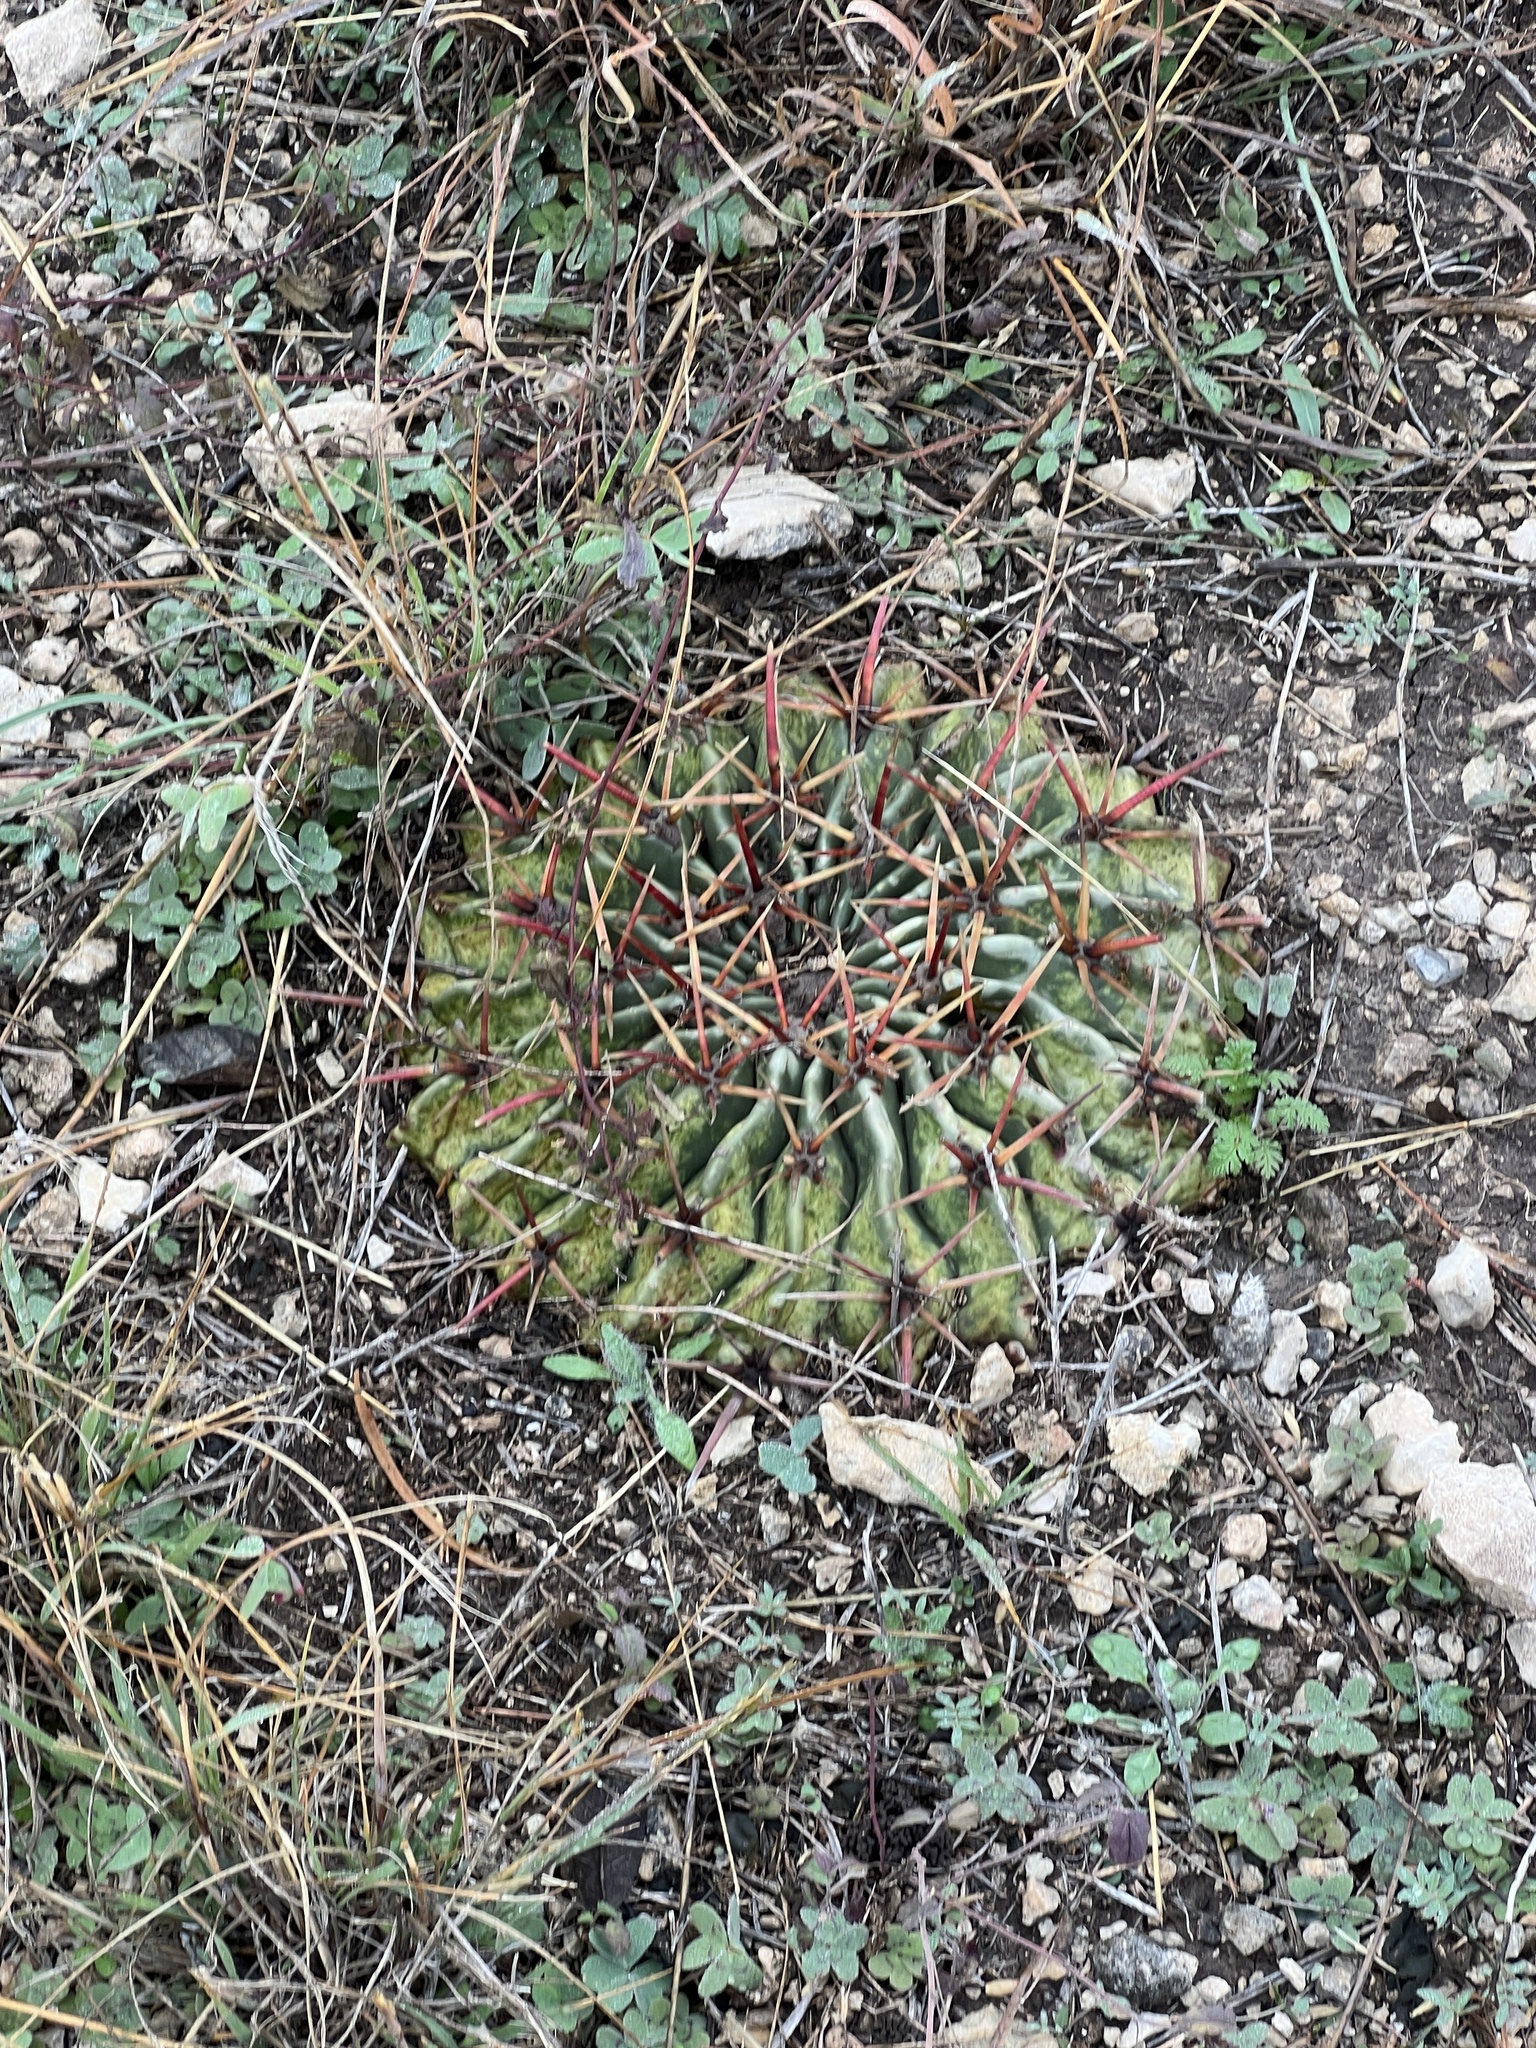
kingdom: Plantae
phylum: Tracheophyta
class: Magnoliopsida
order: Caryophyllales
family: Cactaceae
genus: Echinocactus
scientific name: Echinocactus texensis
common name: Devil's pincushion
